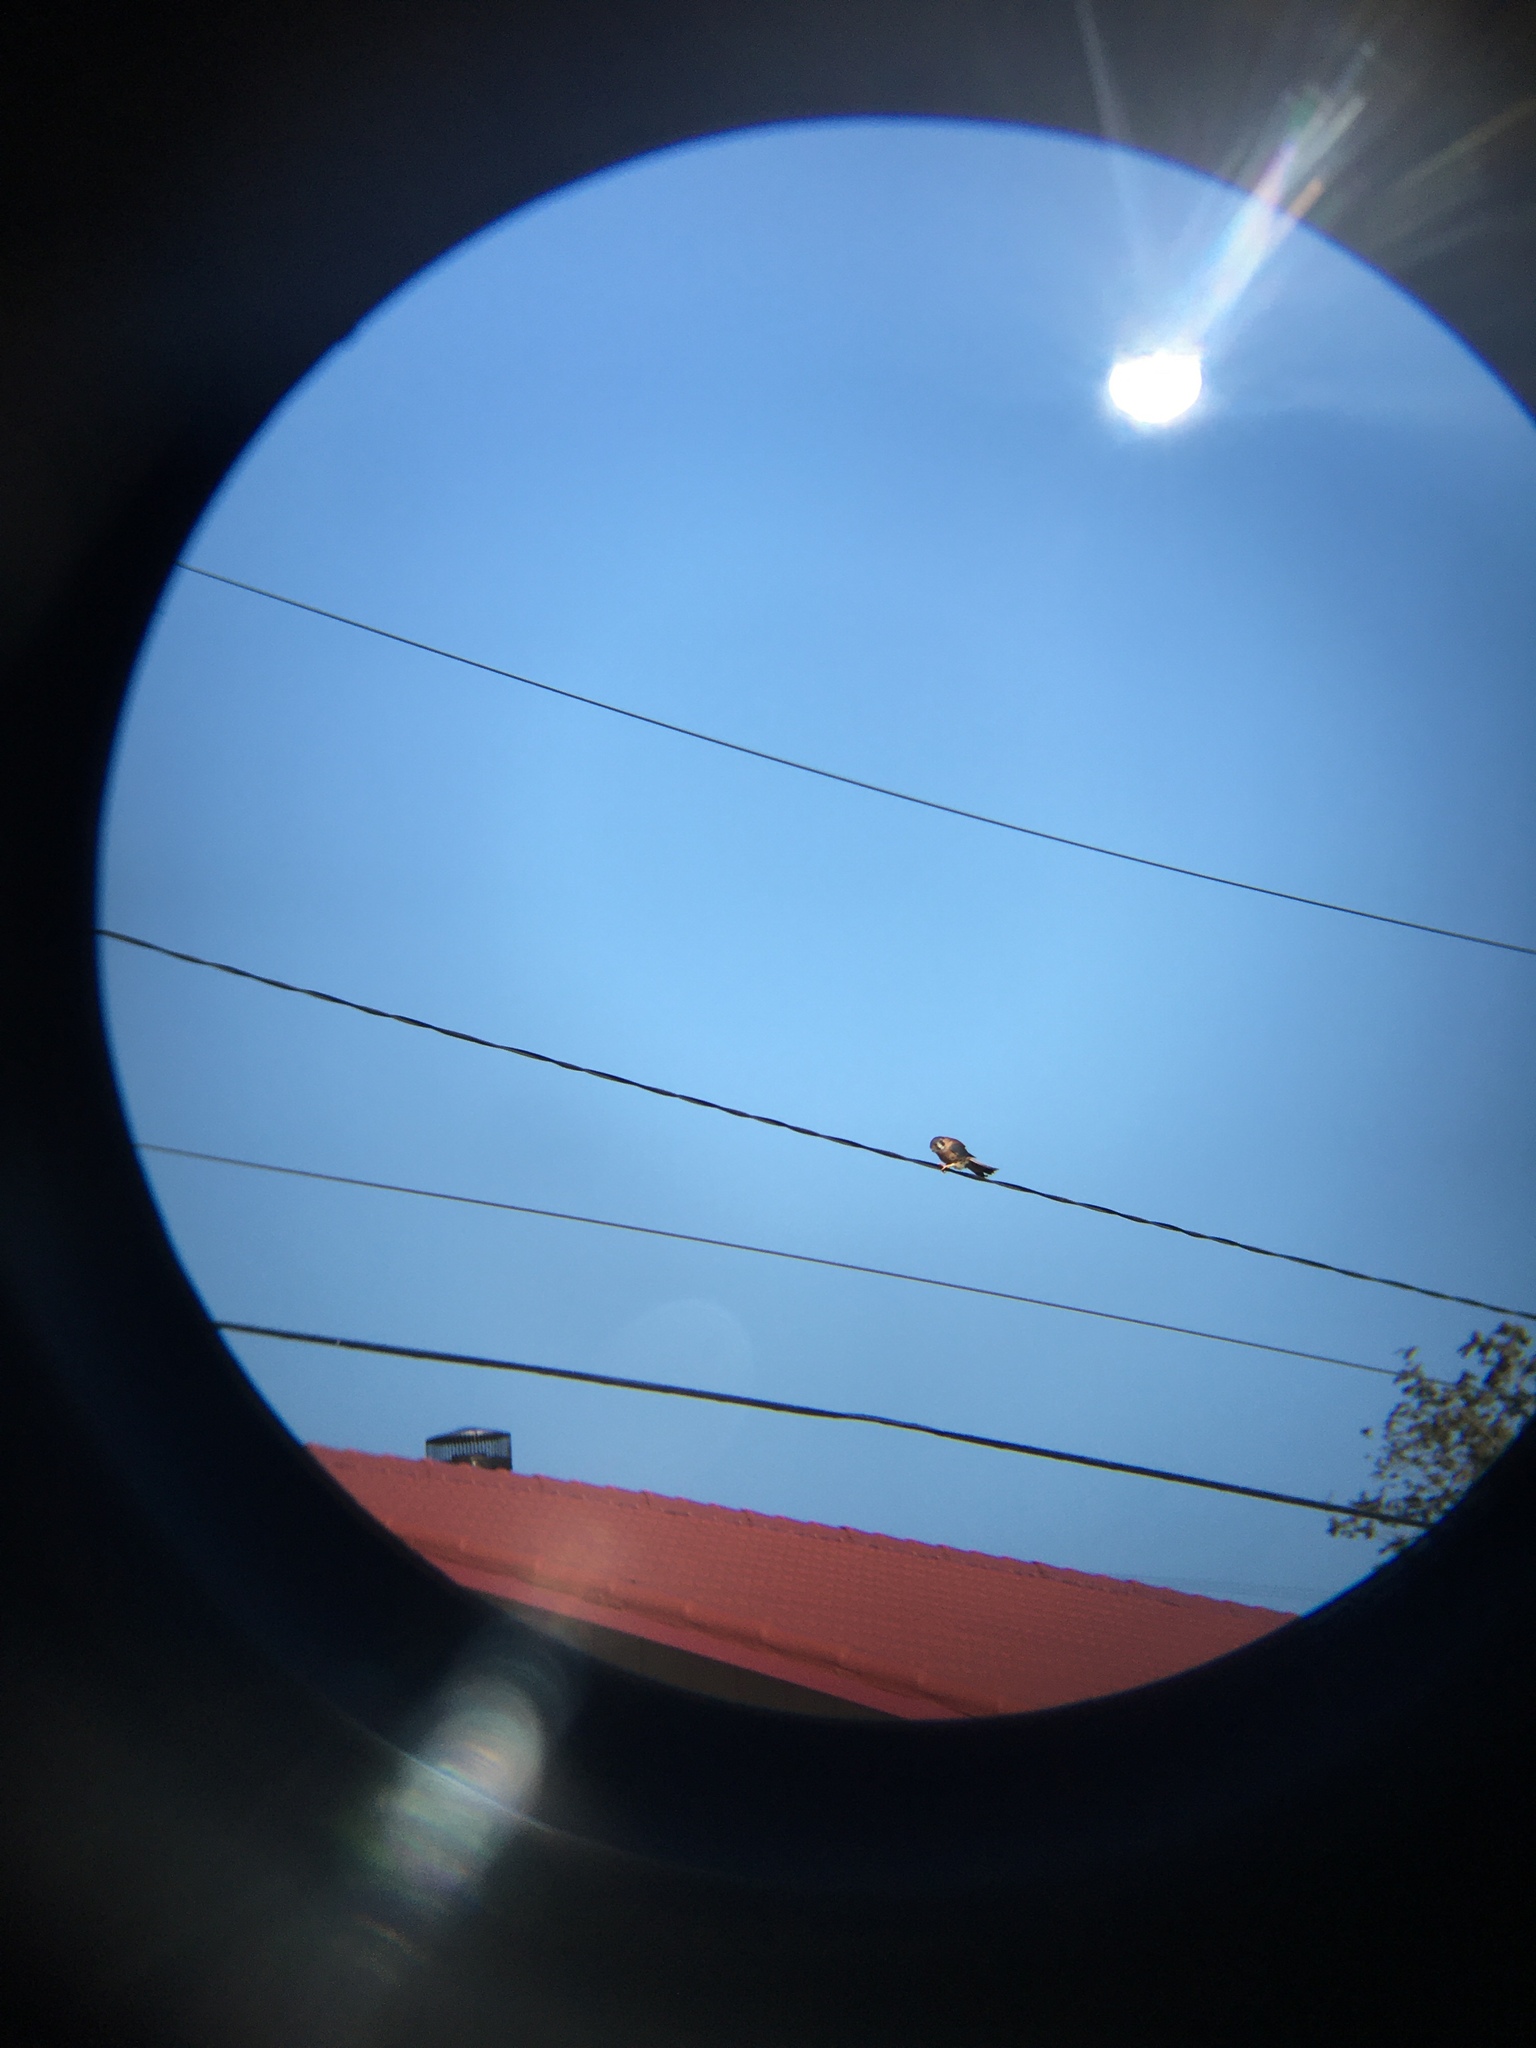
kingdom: Animalia
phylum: Chordata
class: Aves
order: Falconiformes
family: Falconidae
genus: Falco
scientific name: Falco sparverius
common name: American kestrel
